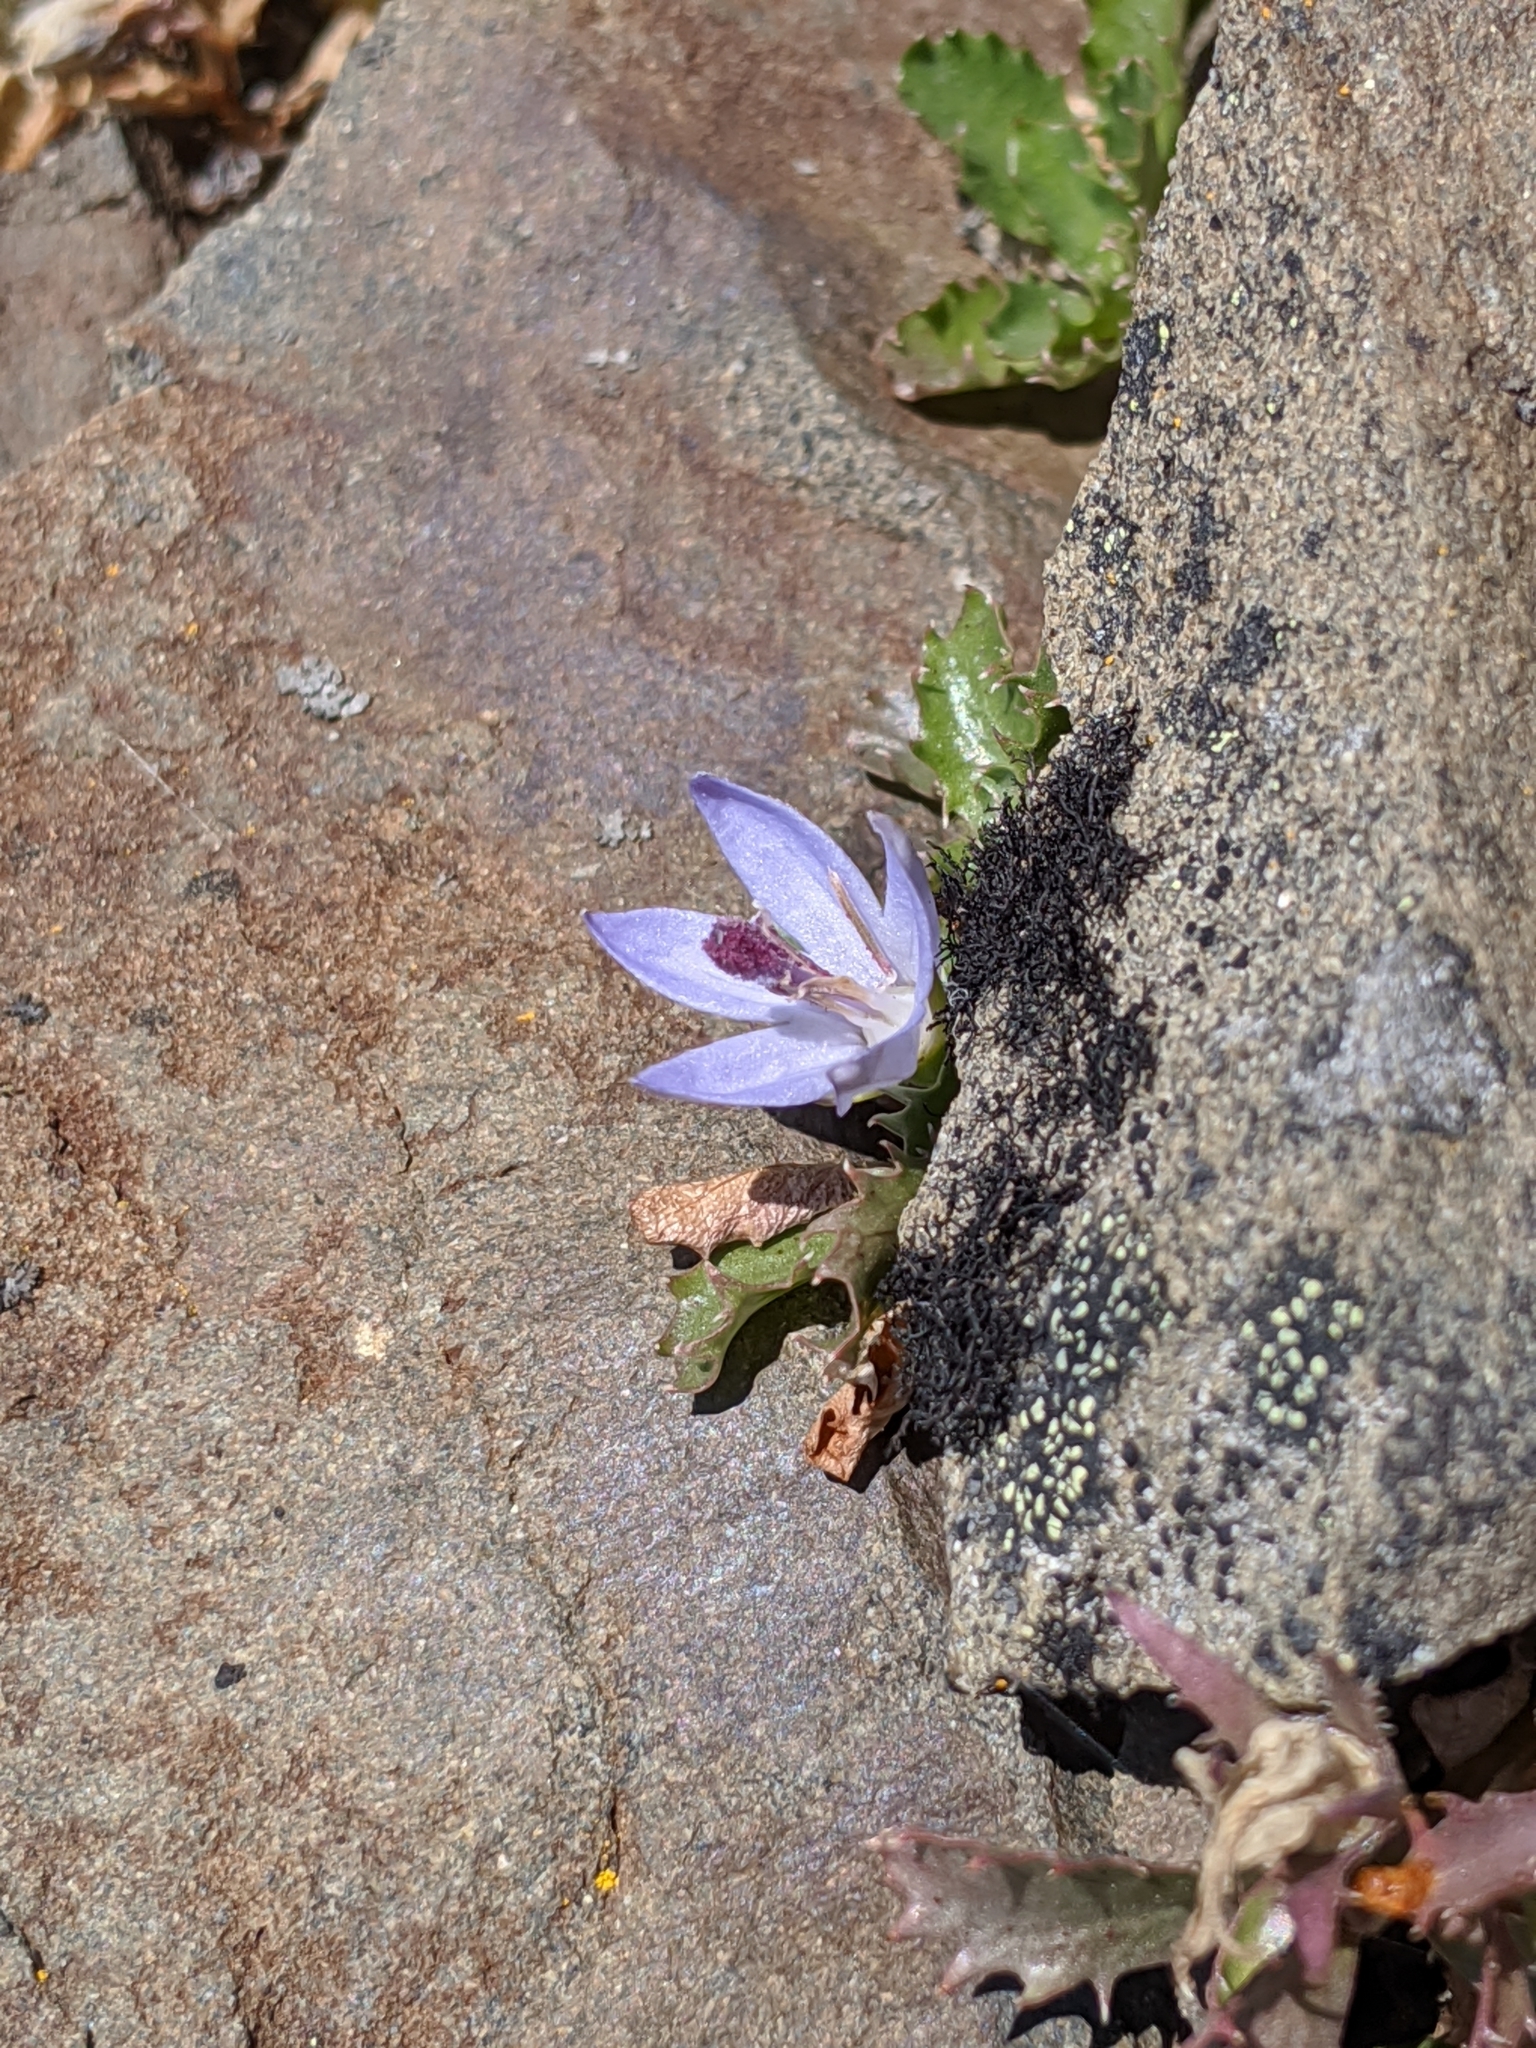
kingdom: Plantae
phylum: Tracheophyta
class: Magnoliopsida
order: Asterales
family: Campanulaceae
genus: Campanula
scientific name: Campanula piperi
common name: Olympic bellflower
